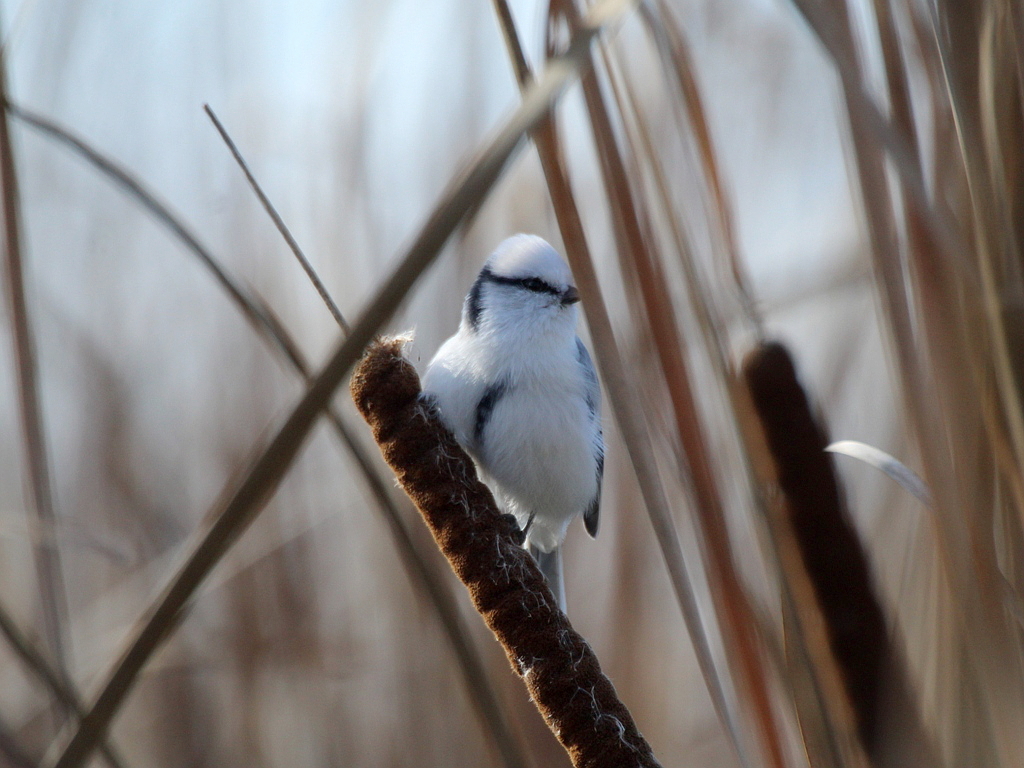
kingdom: Animalia
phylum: Chordata
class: Aves
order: Passeriformes
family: Paridae
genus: Cyanistes
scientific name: Cyanistes cyanus
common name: Azure tit
